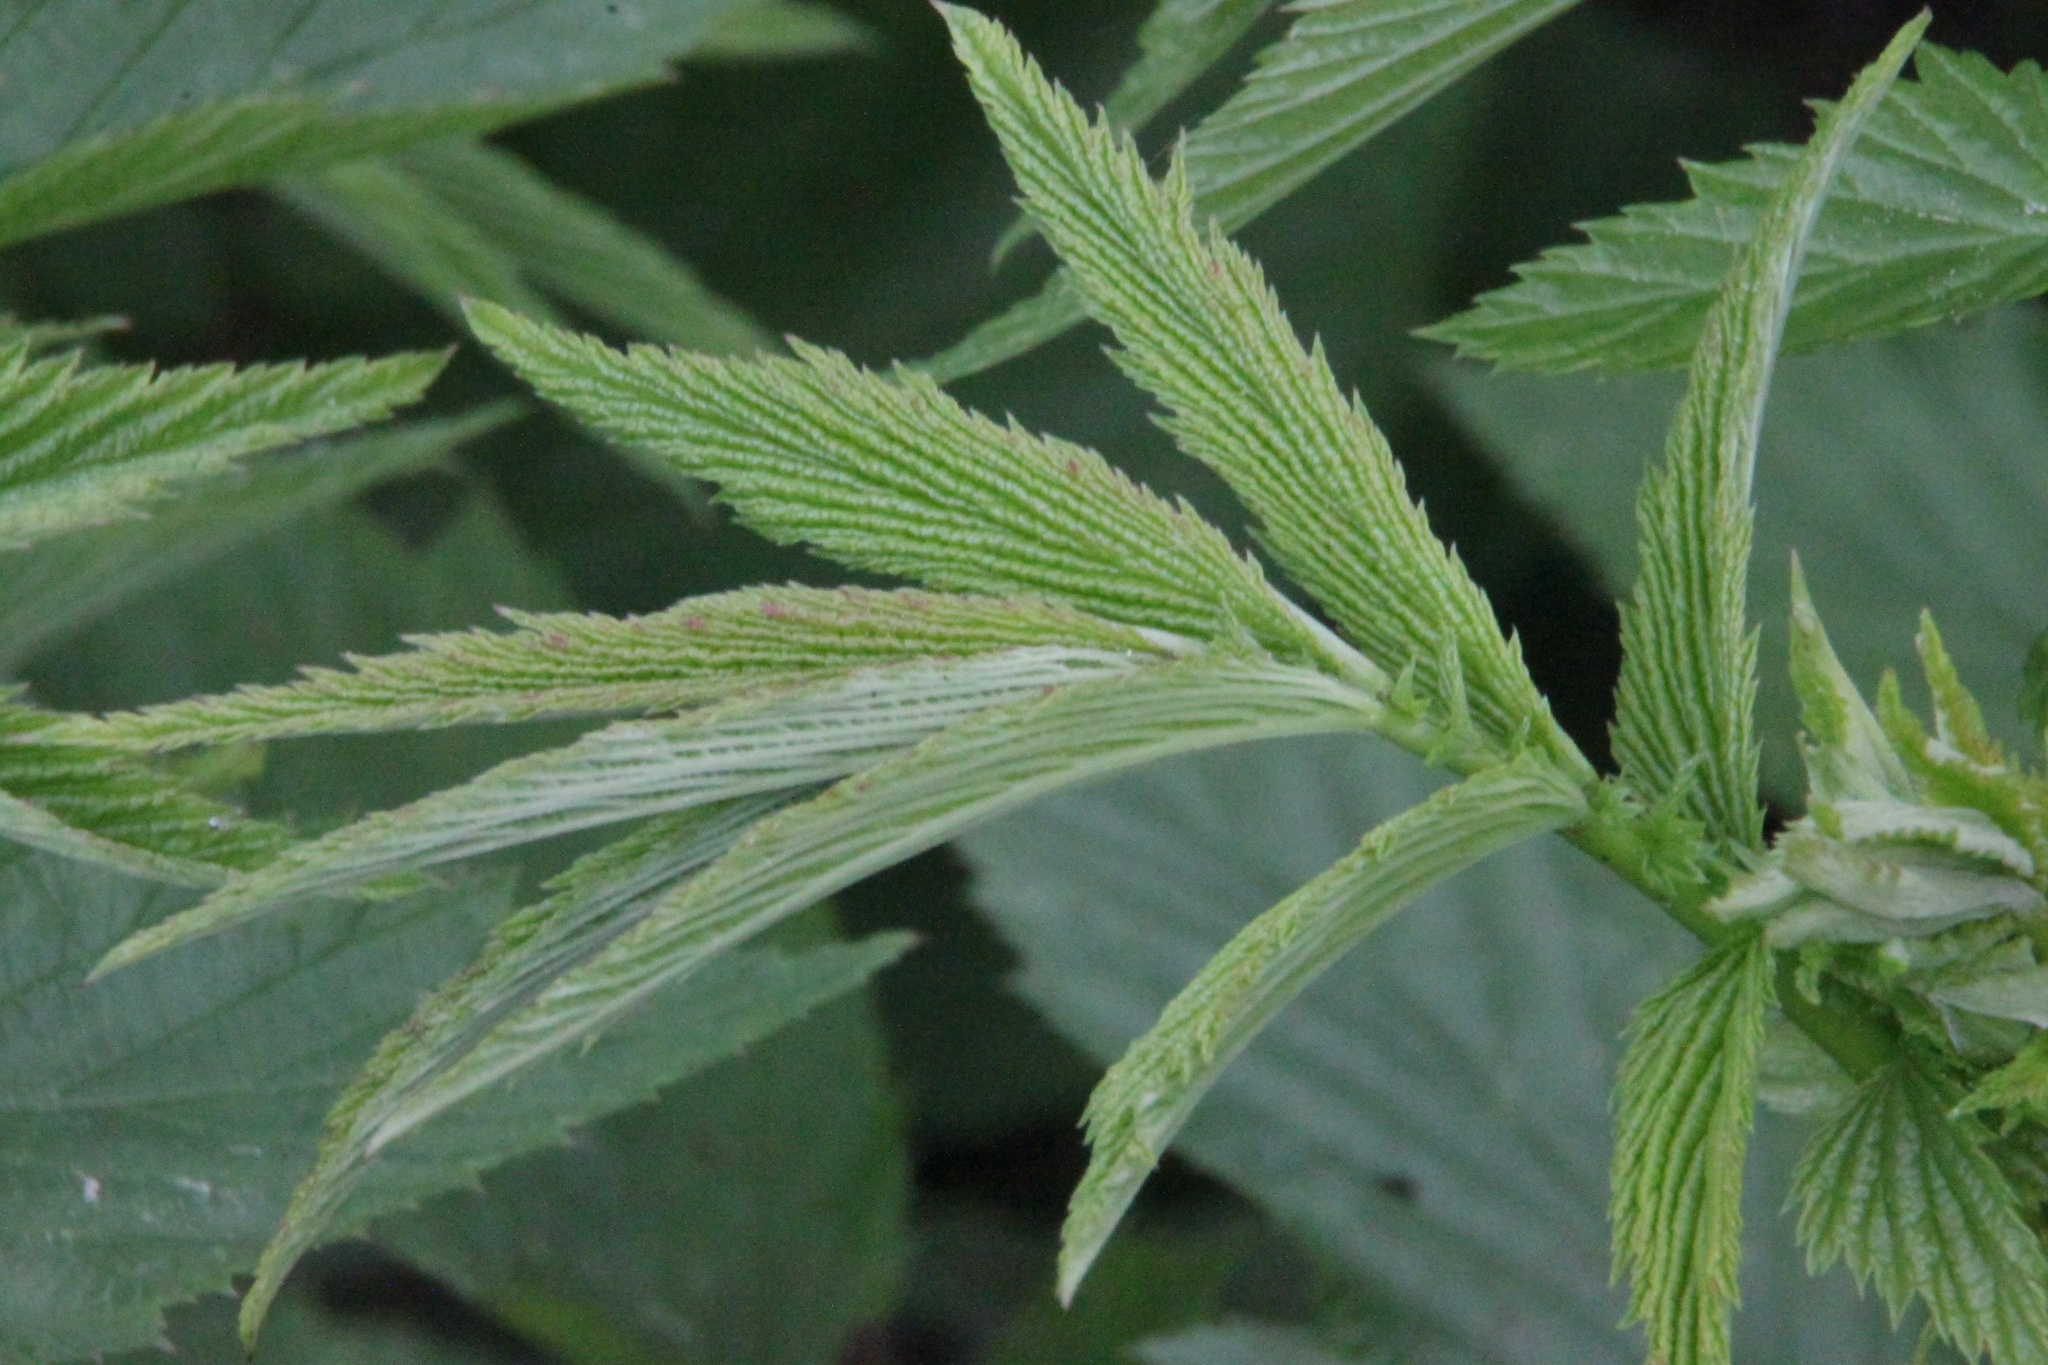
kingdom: Plantae
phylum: Tracheophyta
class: Magnoliopsida
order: Rosales
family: Rosaceae
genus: Filipendula
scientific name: Filipendula ulmaria
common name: Meadowsweet
